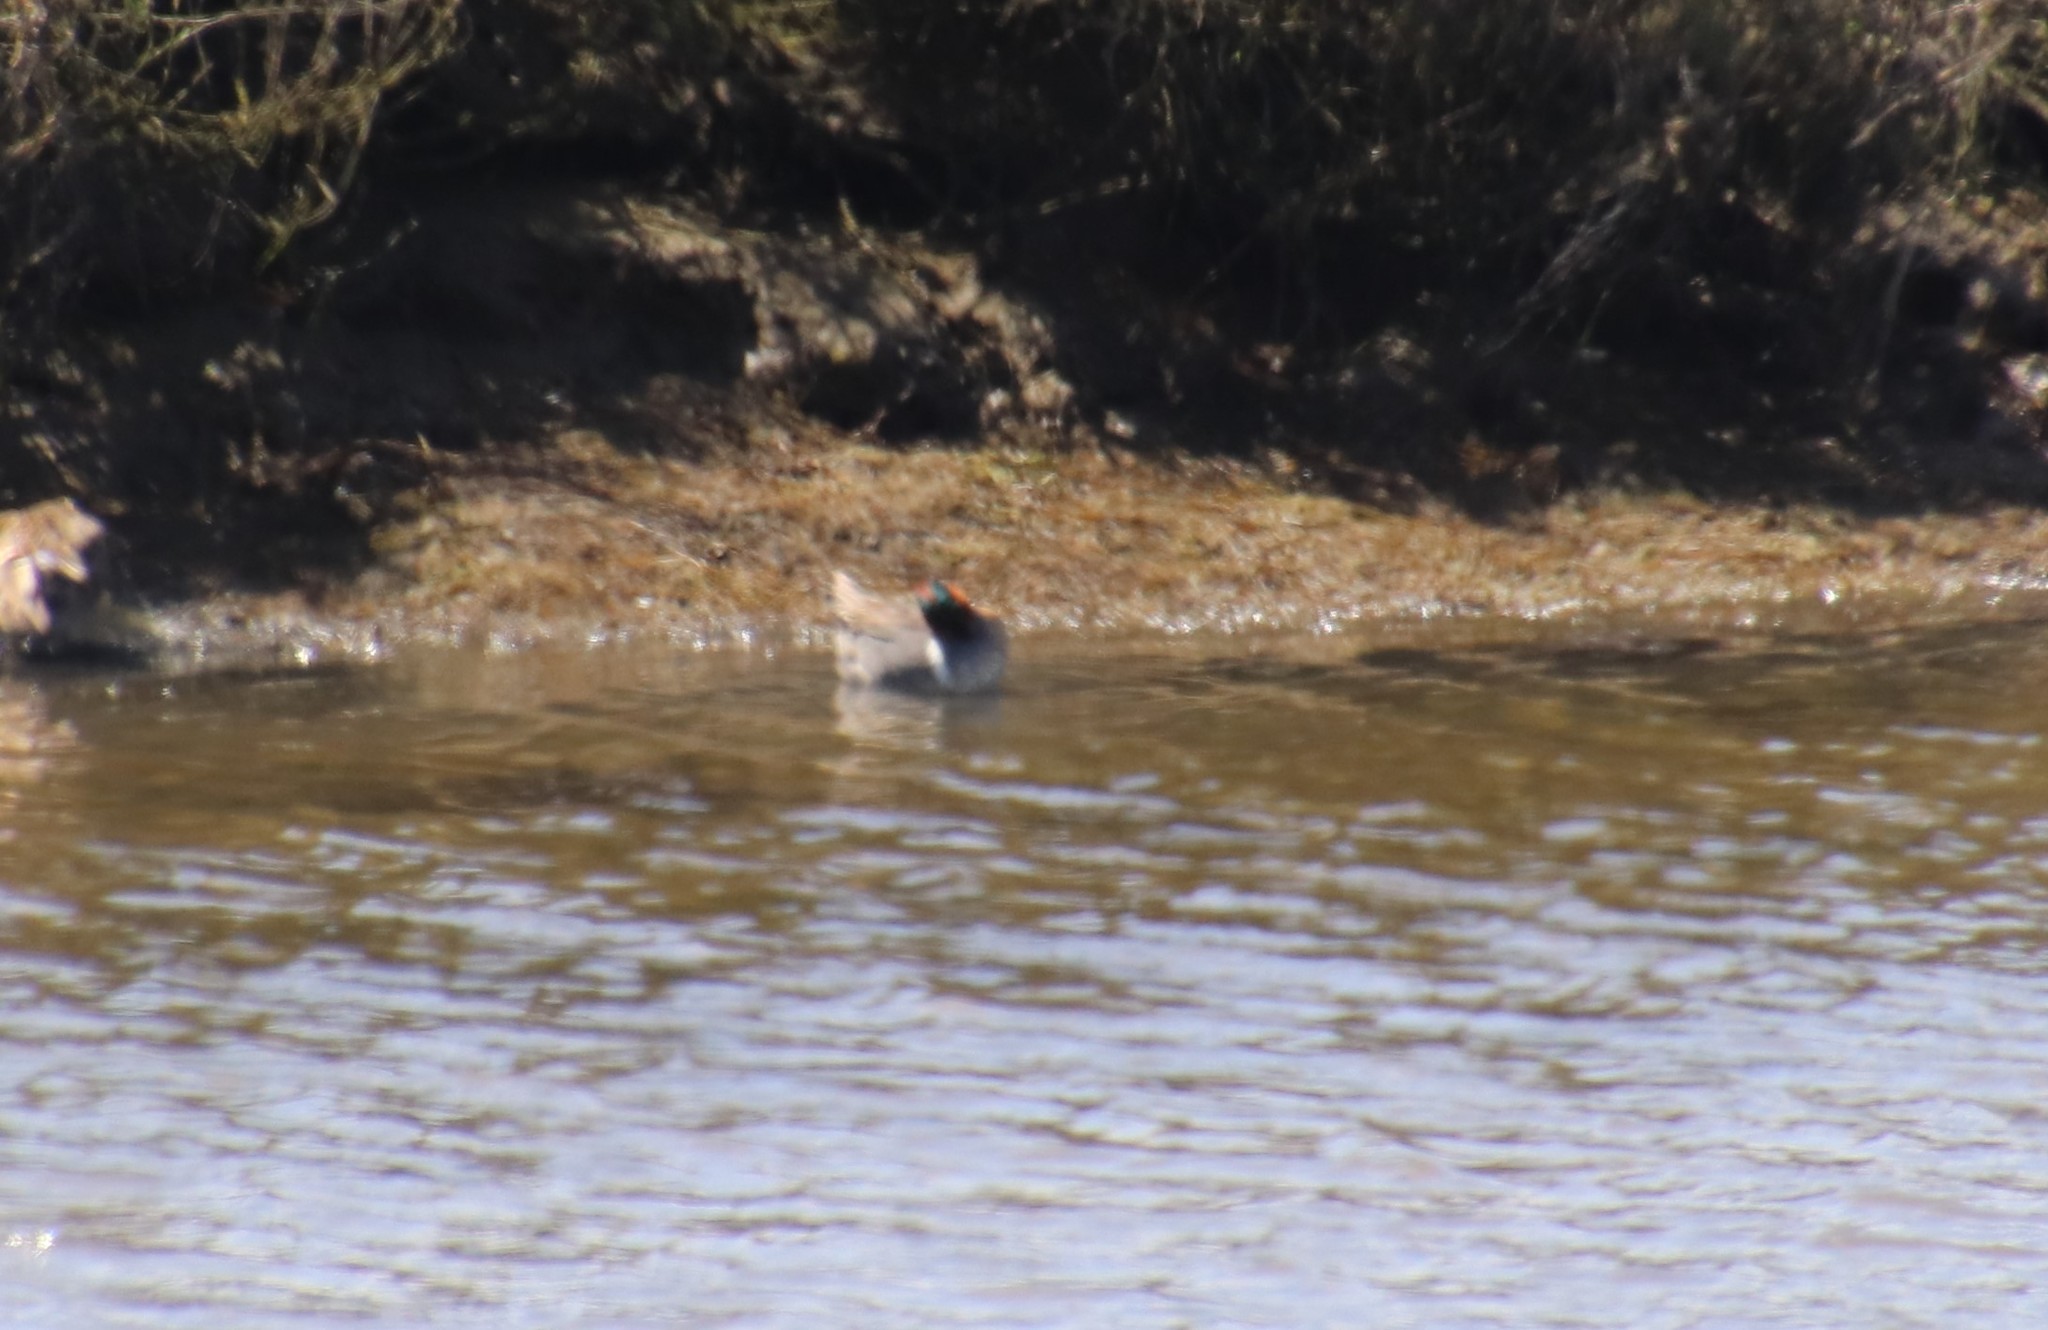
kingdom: Animalia
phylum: Chordata
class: Aves
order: Anseriformes
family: Anatidae
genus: Anas
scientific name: Anas crecca
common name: Eurasian teal
